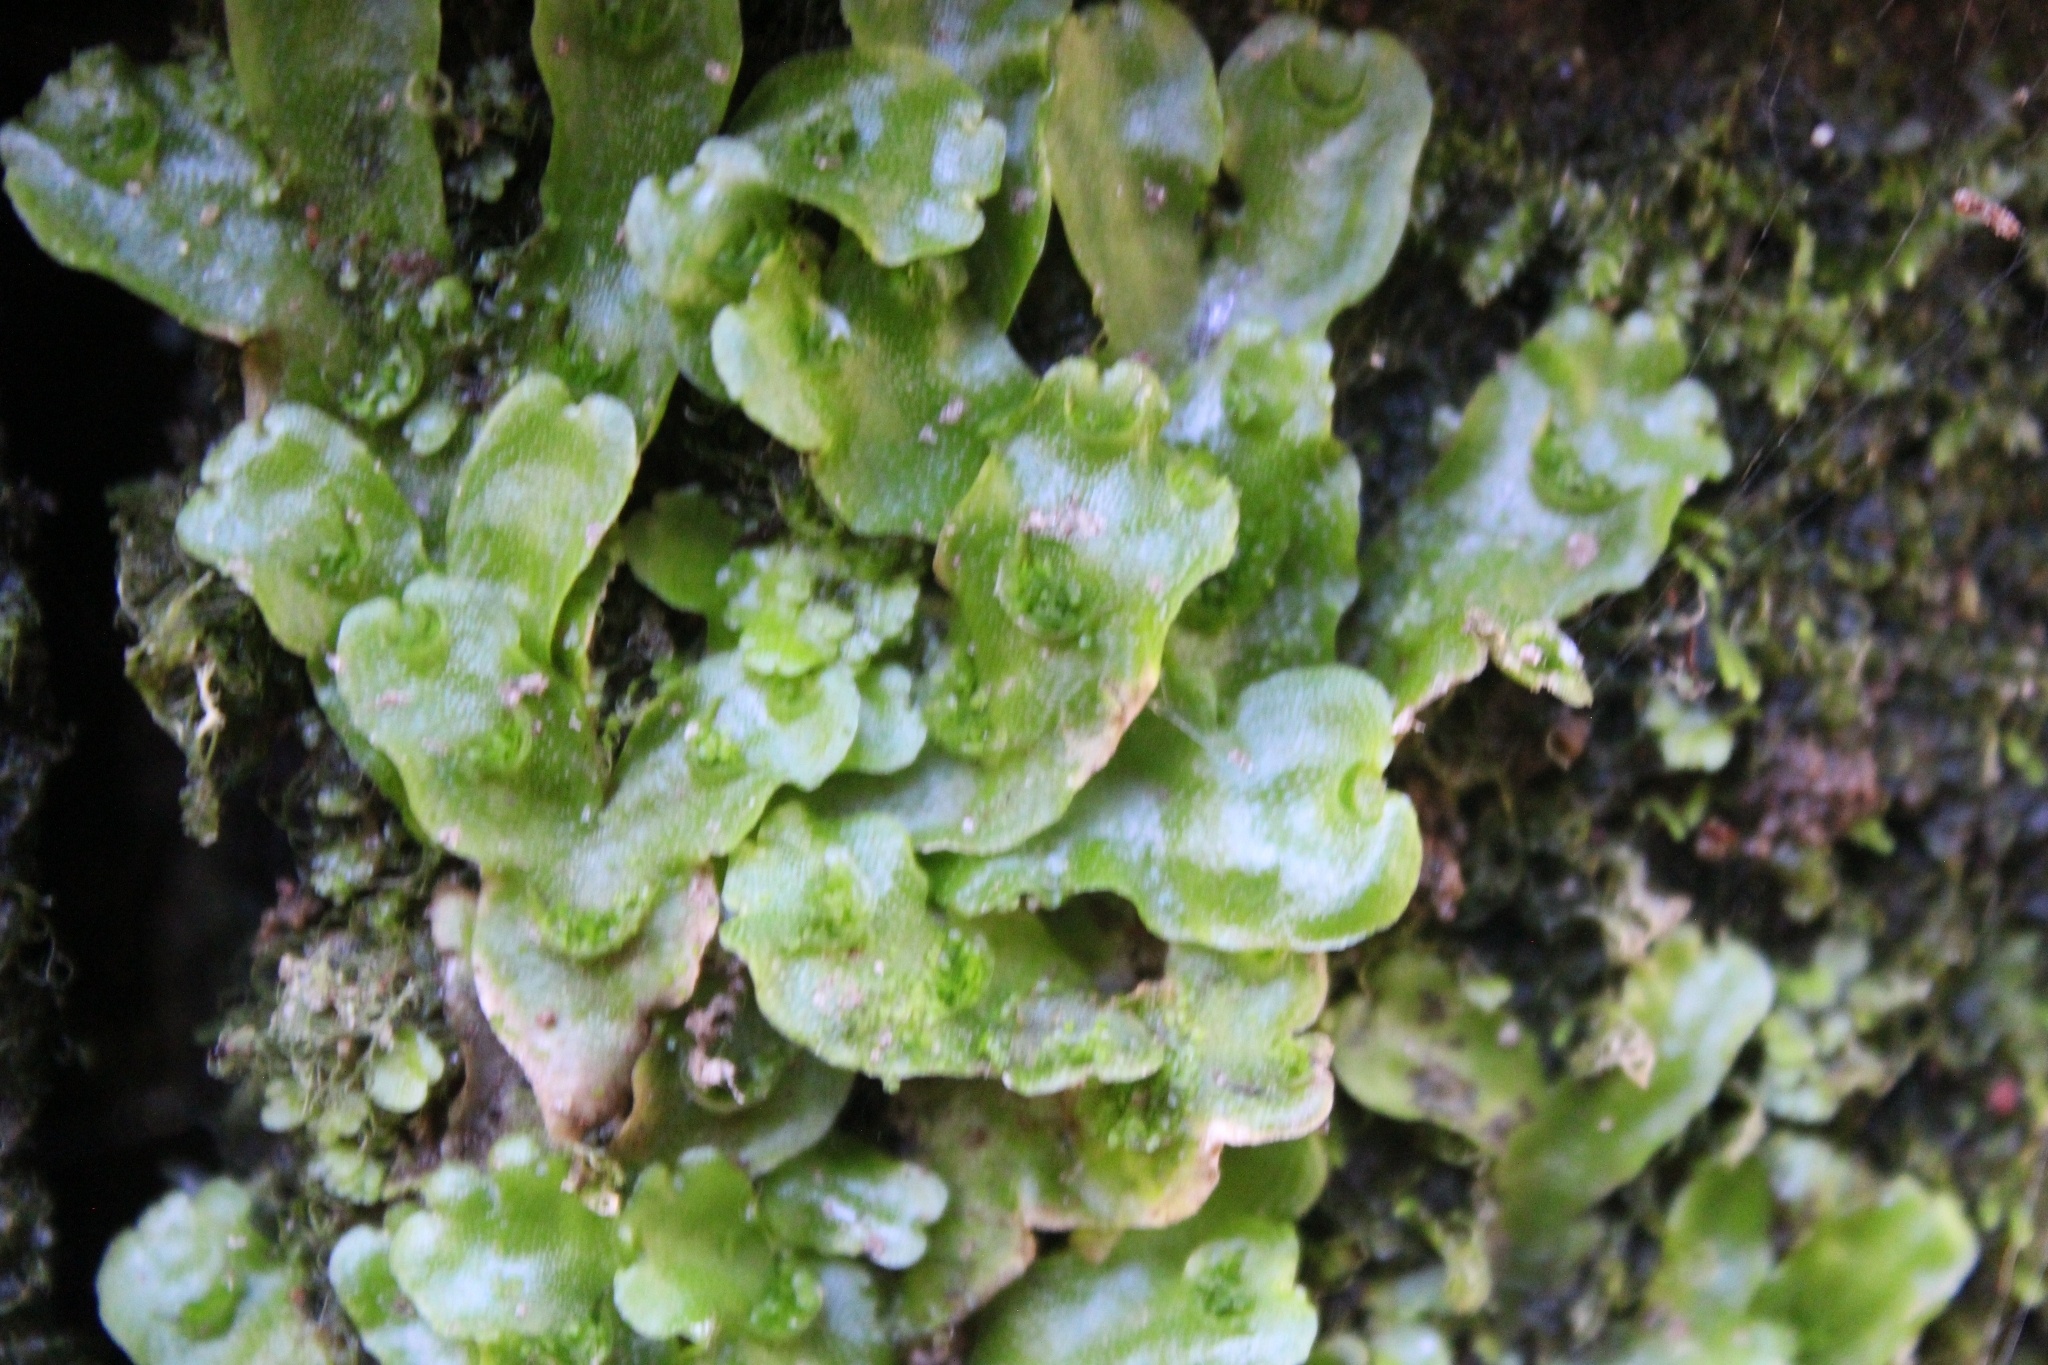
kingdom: Plantae
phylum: Marchantiophyta
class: Marchantiopsida
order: Lunulariales
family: Lunulariaceae
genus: Lunularia
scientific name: Lunularia cruciata
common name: Crescent-cup liverwort
